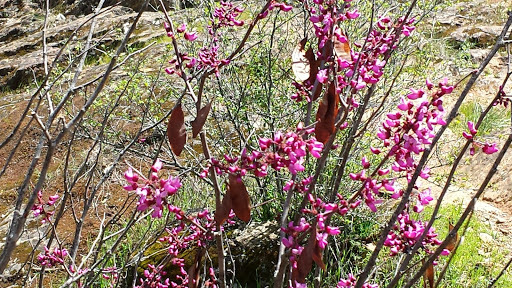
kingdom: Plantae
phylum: Tracheophyta
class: Magnoliopsida
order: Fabales
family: Fabaceae
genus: Cercis
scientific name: Cercis occidentalis
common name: California redbud
